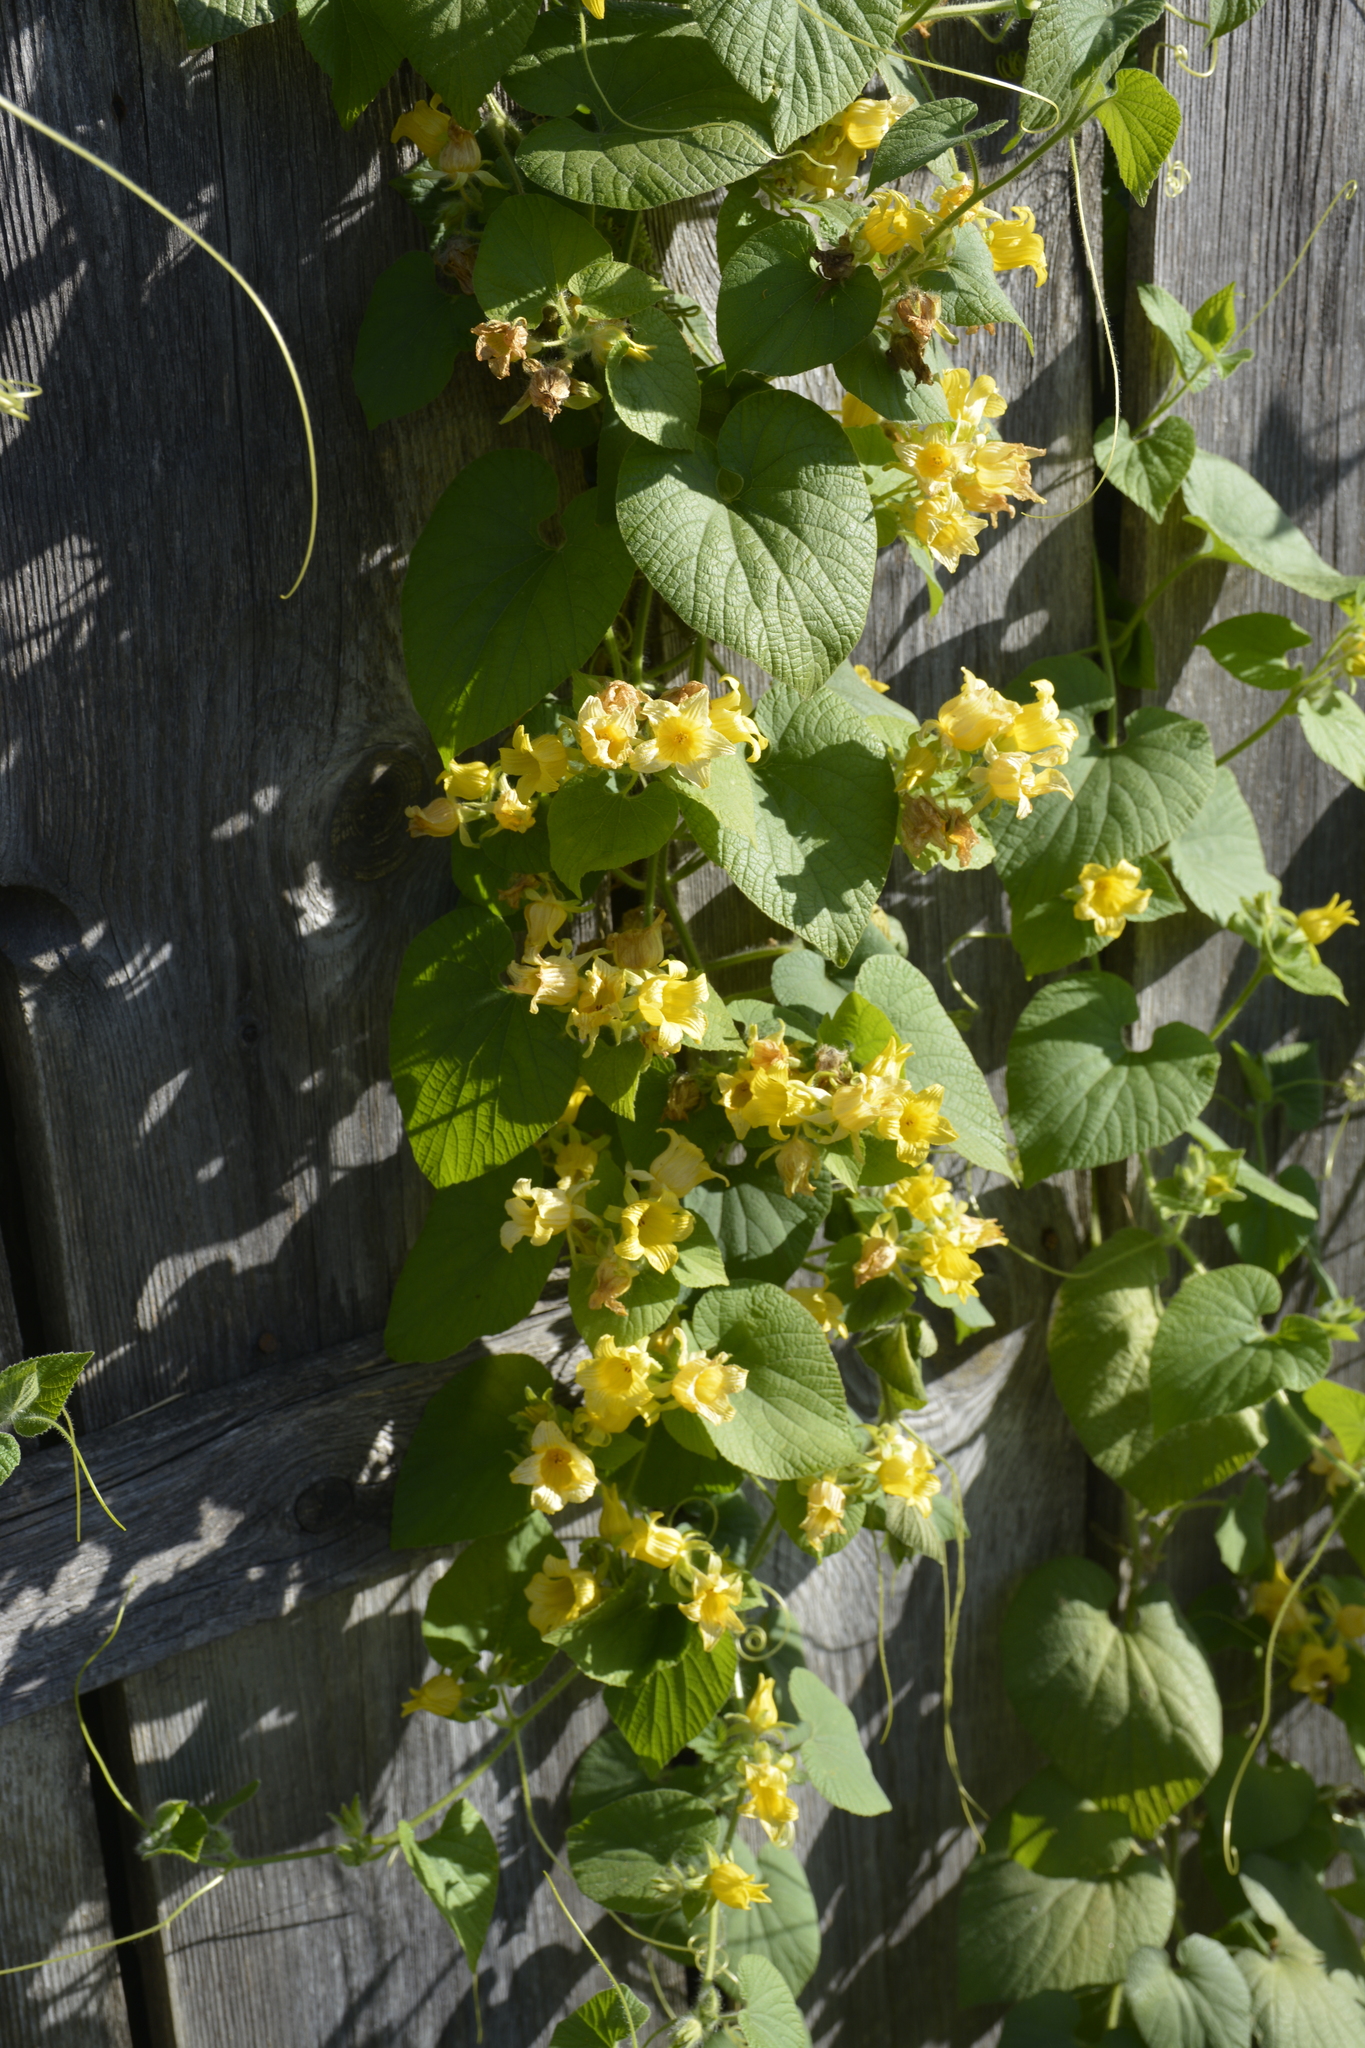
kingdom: Plantae
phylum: Tracheophyta
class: Magnoliopsida
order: Cucurbitales
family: Cucurbitaceae
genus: Thladiantha
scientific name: Thladiantha dubia
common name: Manchu tubergourd
